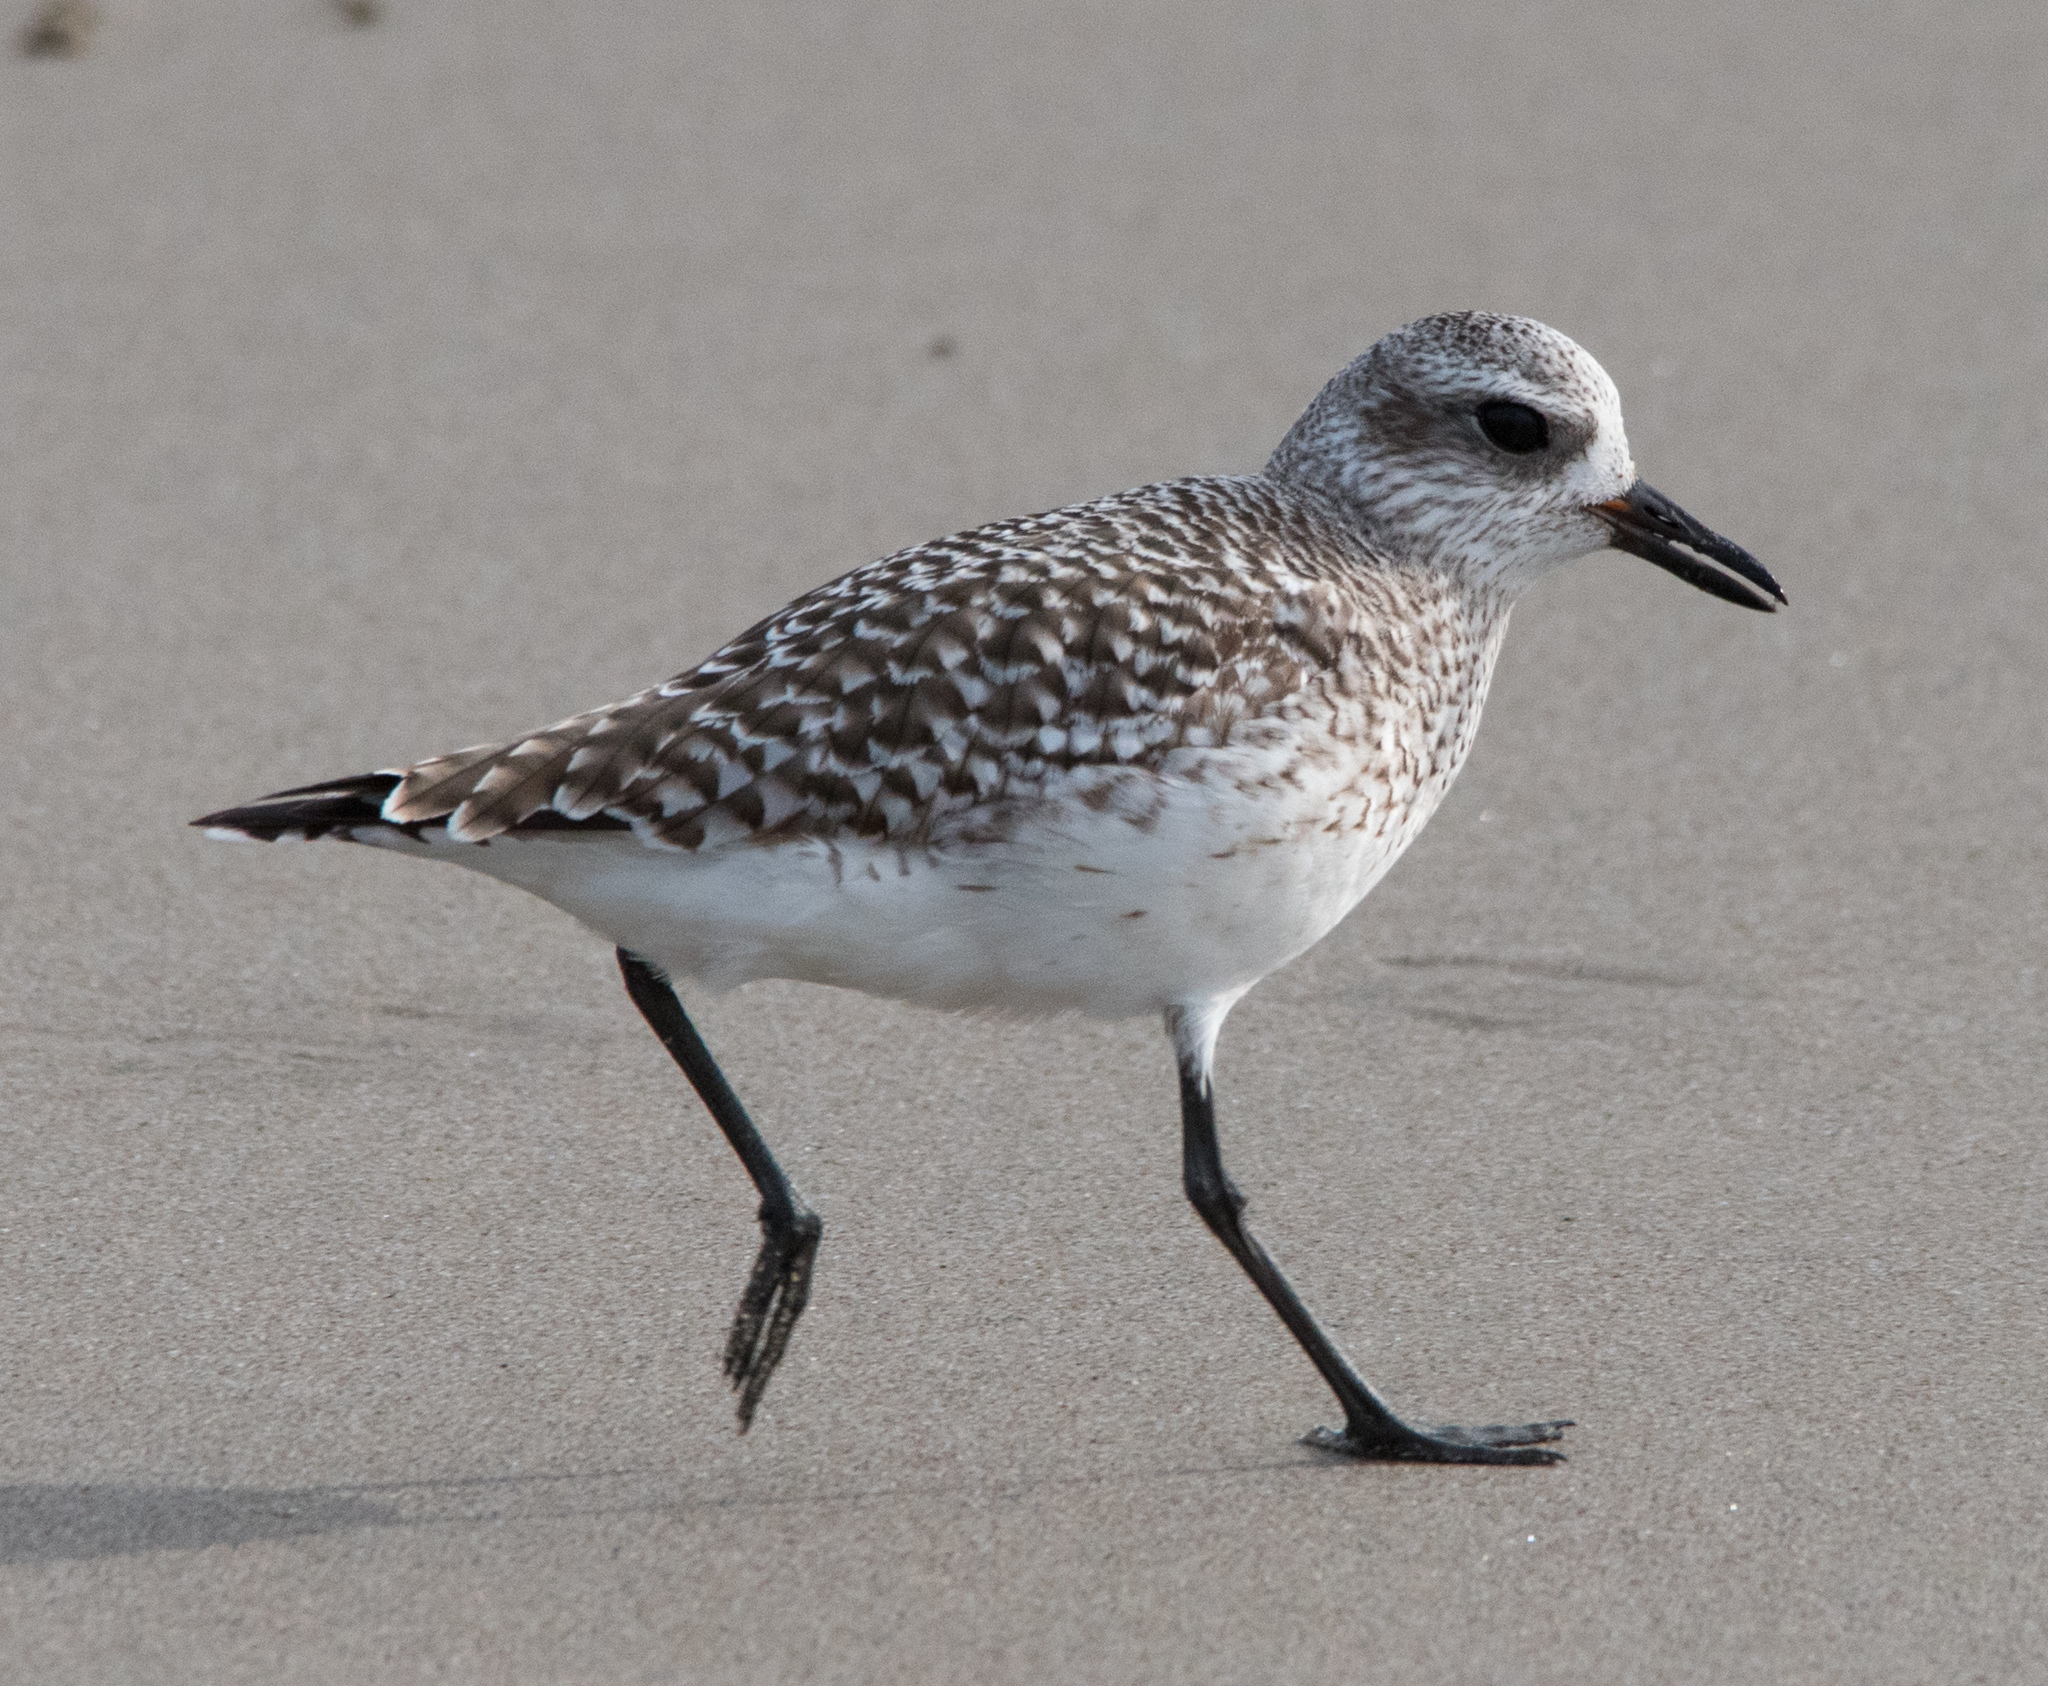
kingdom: Animalia
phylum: Chordata
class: Aves
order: Charadriiformes
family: Charadriidae
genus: Pluvialis
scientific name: Pluvialis squatarola
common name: Grey plover
